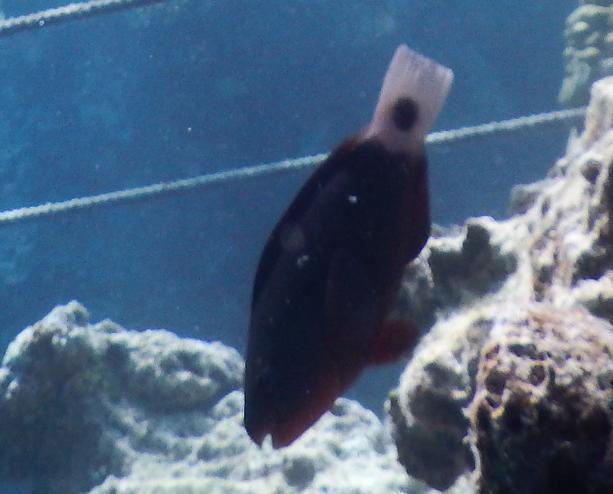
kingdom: Animalia
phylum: Chordata
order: Perciformes
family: Scaridae
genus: Chlorurus
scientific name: Chlorurus spilurus
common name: Bullethead parrotfish
